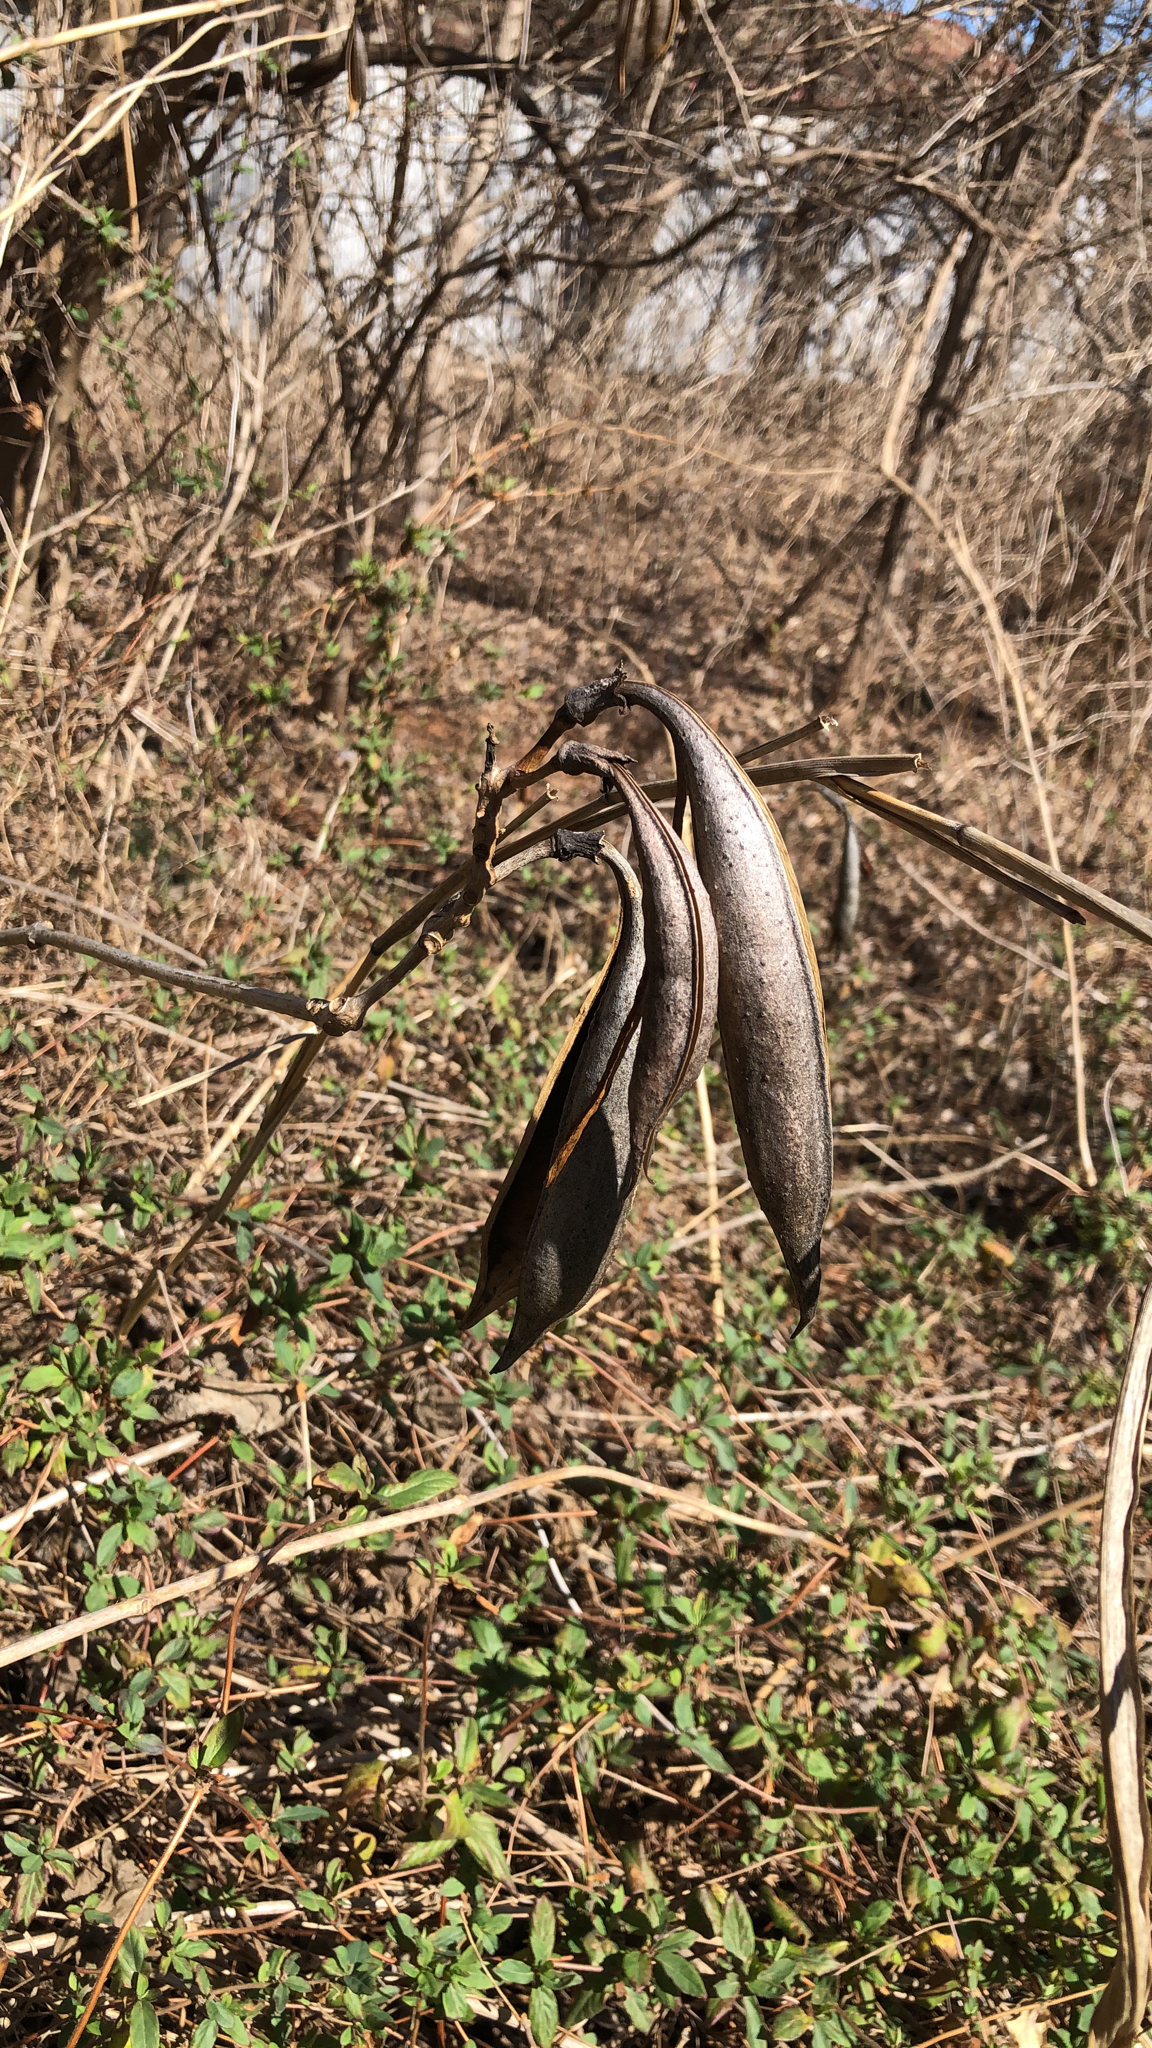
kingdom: Plantae
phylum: Tracheophyta
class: Magnoliopsida
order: Lamiales
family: Bignoniaceae
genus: Campsis
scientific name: Campsis radicans
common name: Trumpet-creeper
